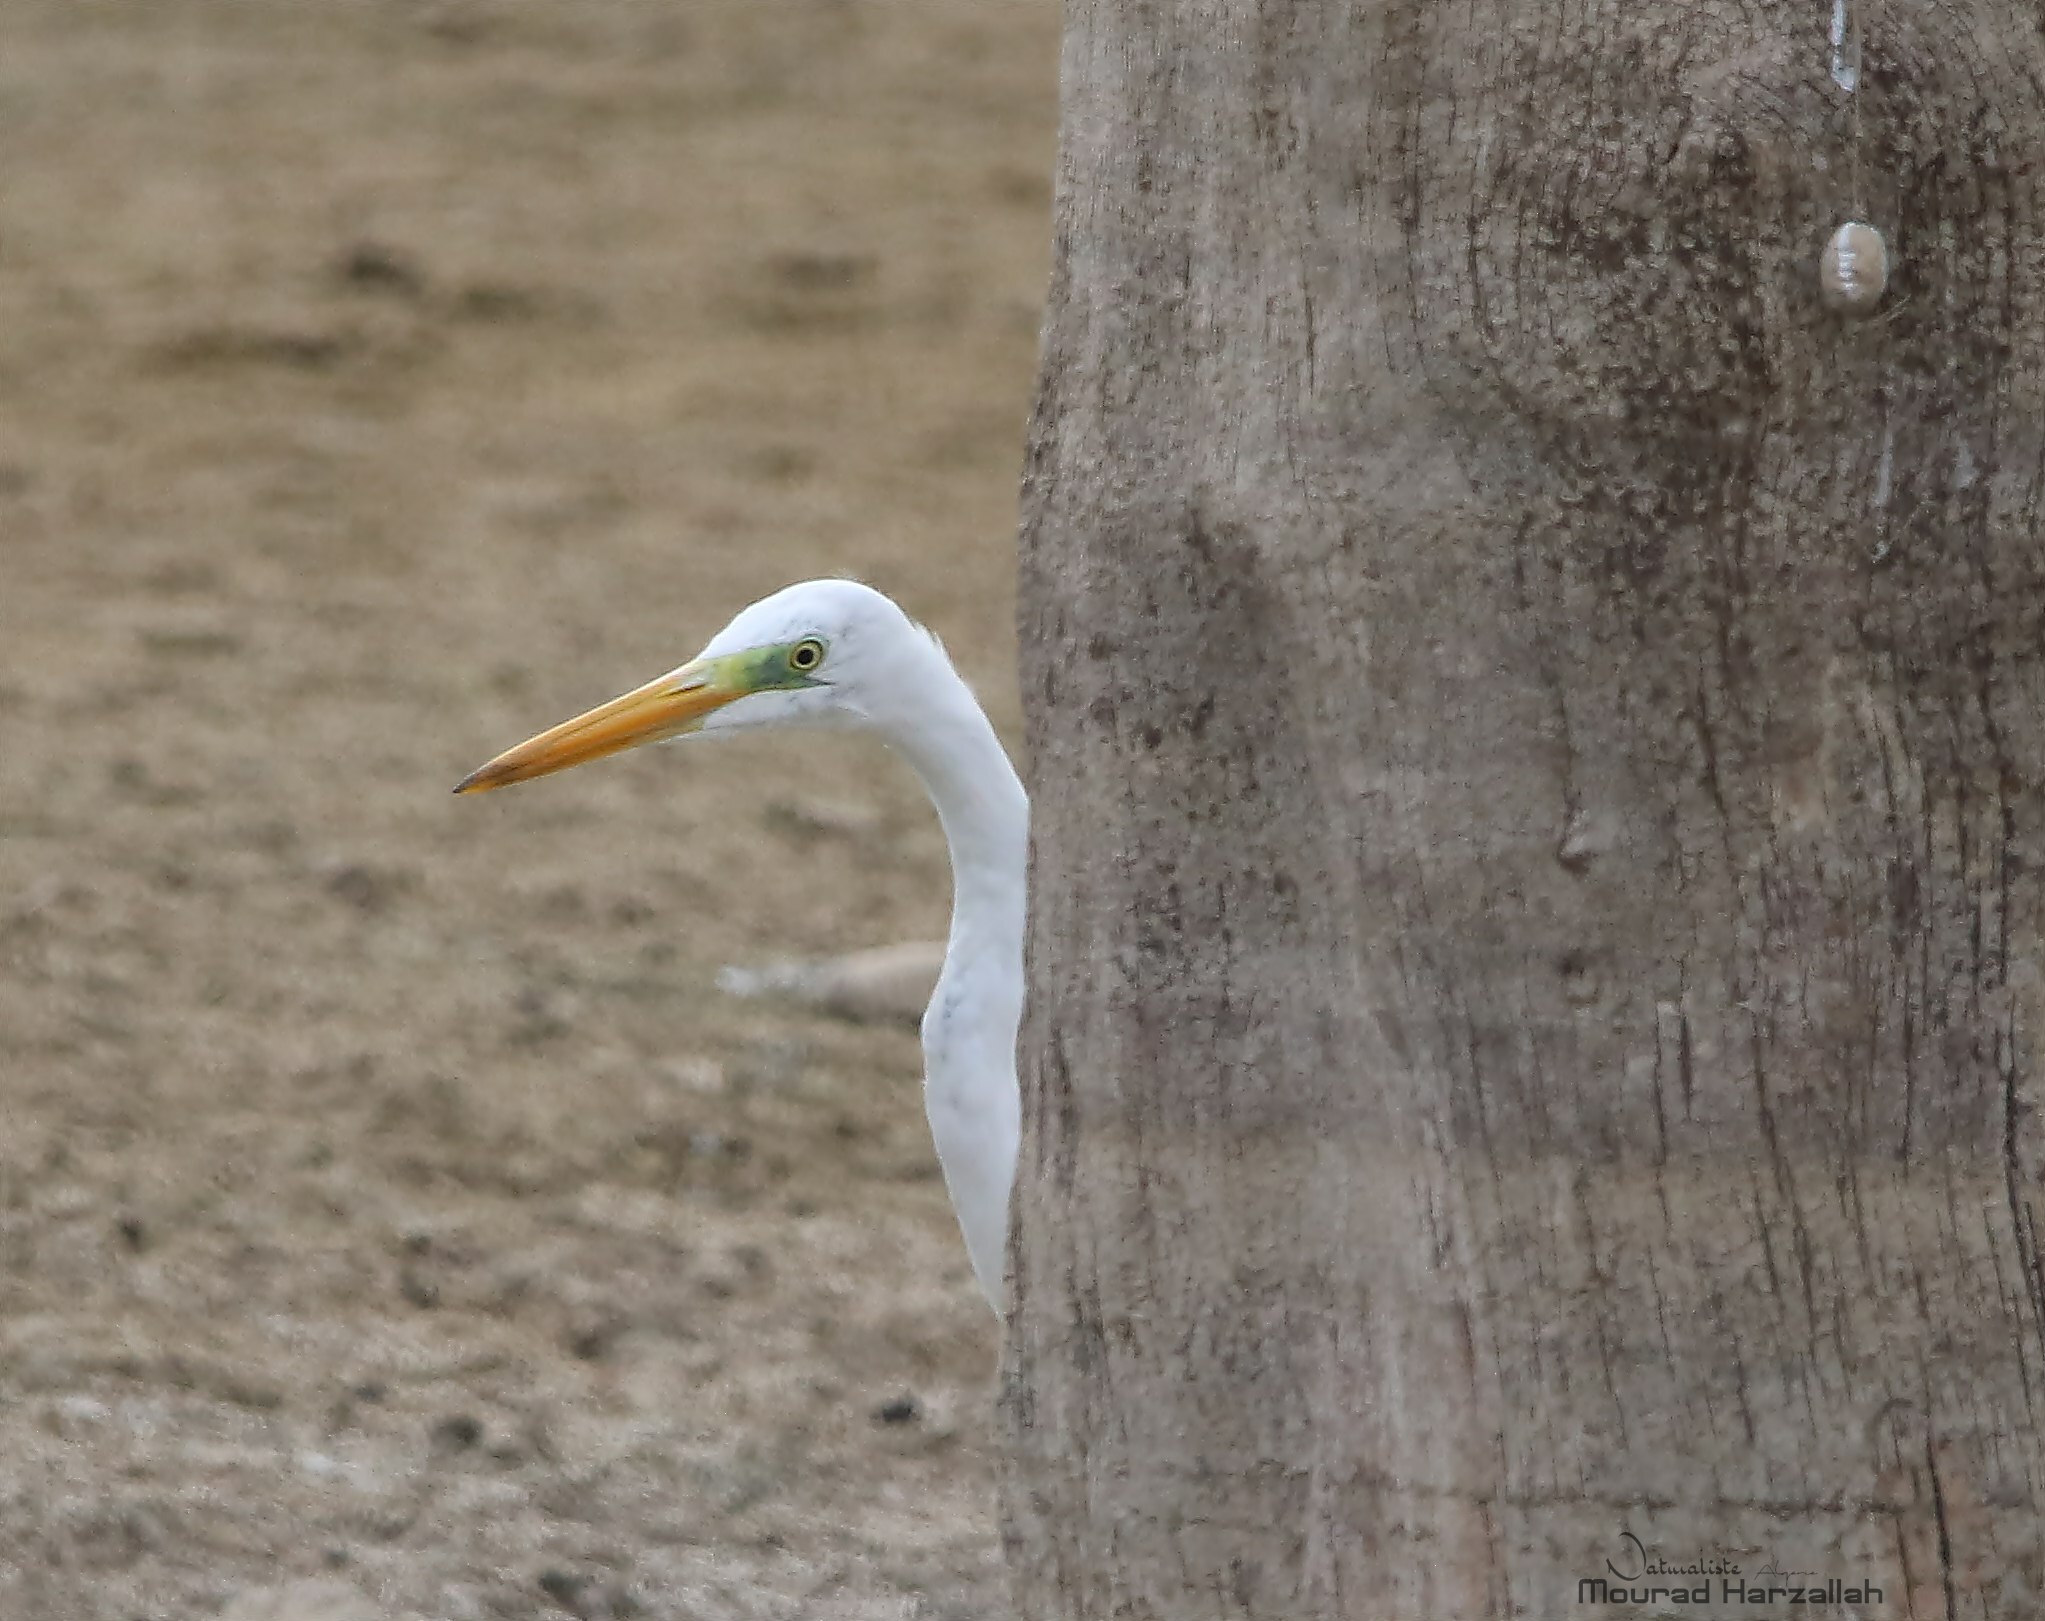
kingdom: Animalia
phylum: Chordata
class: Aves
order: Pelecaniformes
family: Ardeidae
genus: Ardea
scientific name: Ardea alba
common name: Great egret
